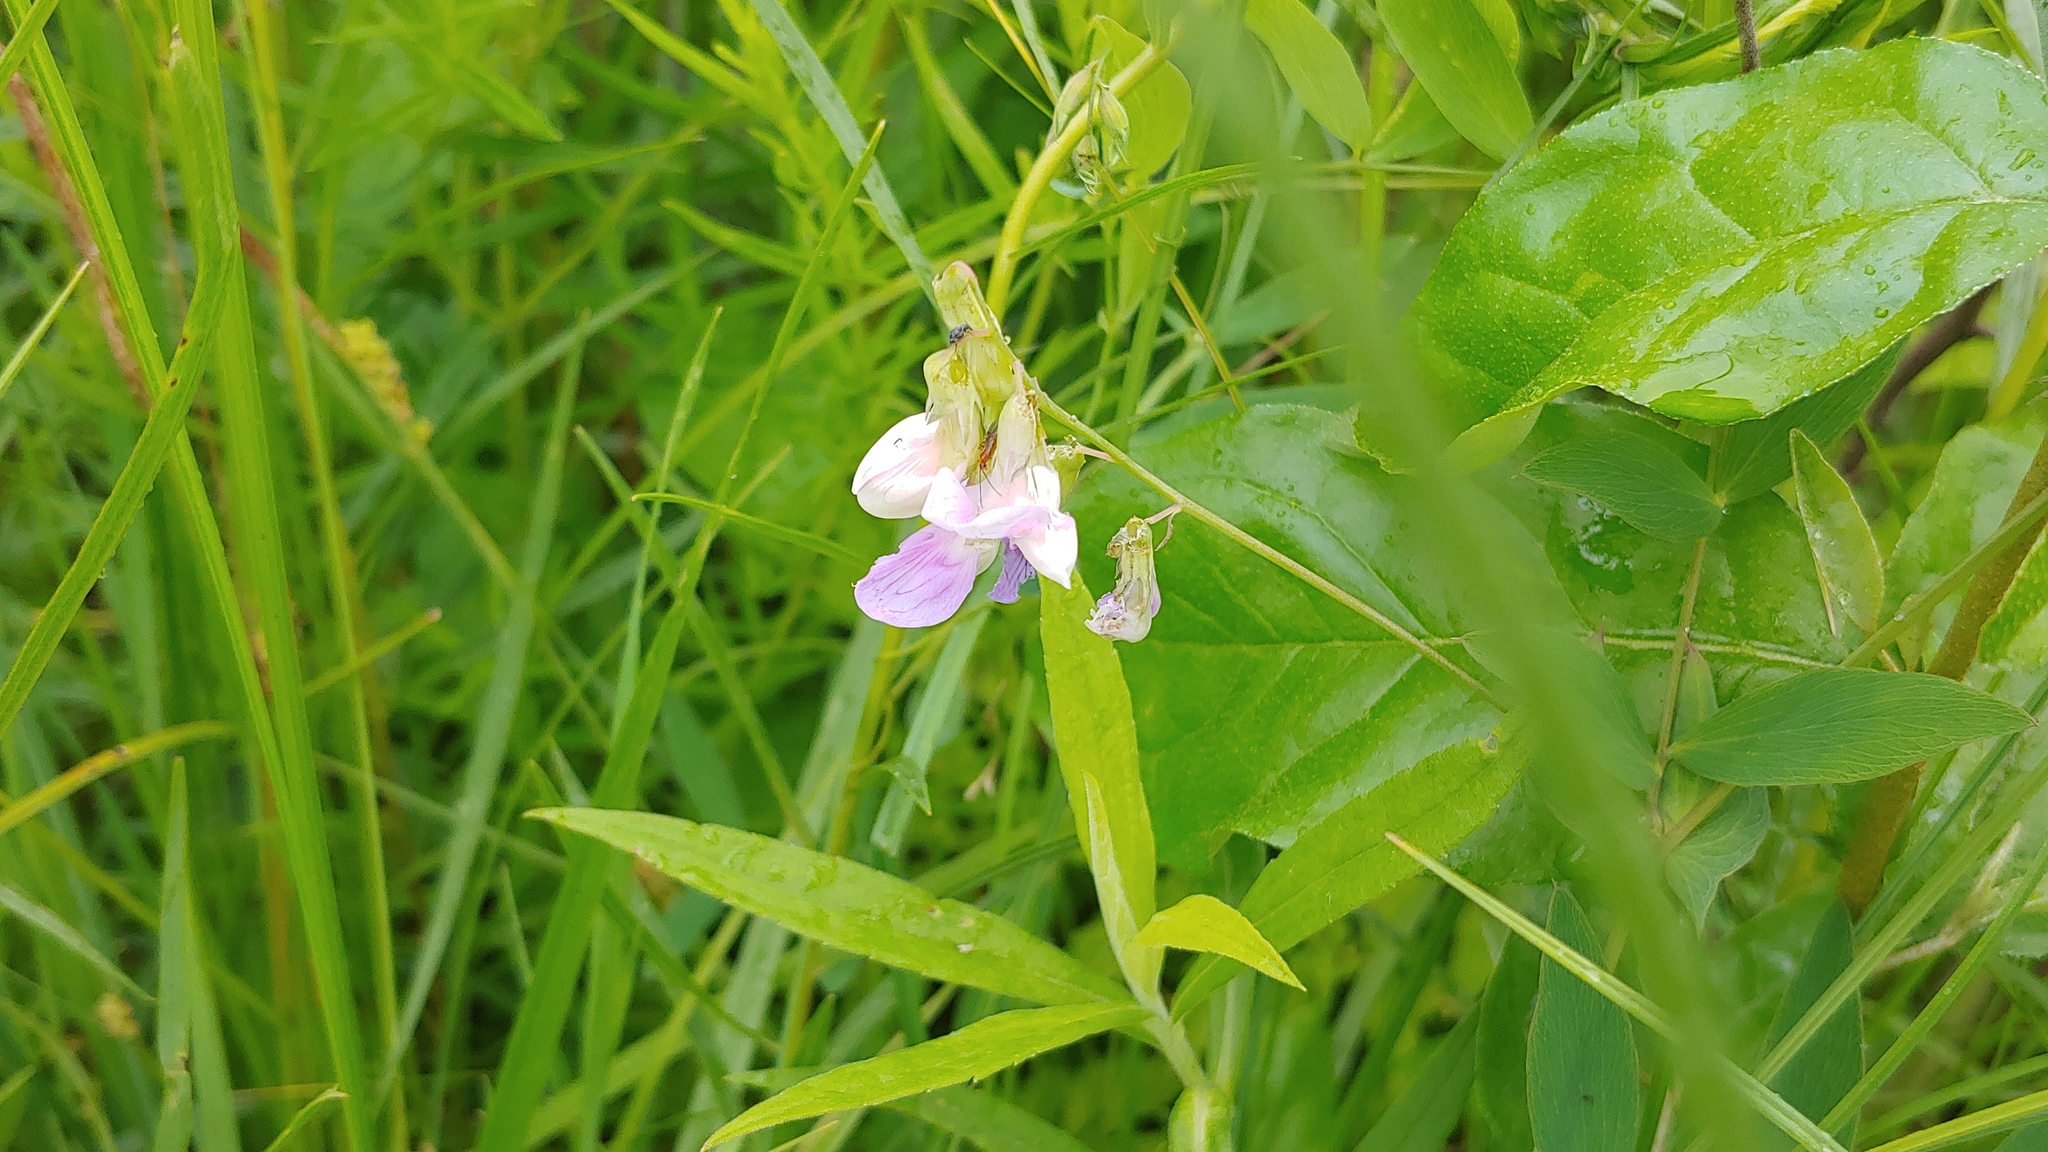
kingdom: Plantae
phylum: Tracheophyta
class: Magnoliopsida
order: Fabales
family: Fabaceae
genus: Lathyrus
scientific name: Lathyrus palustris
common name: Marsh pea
